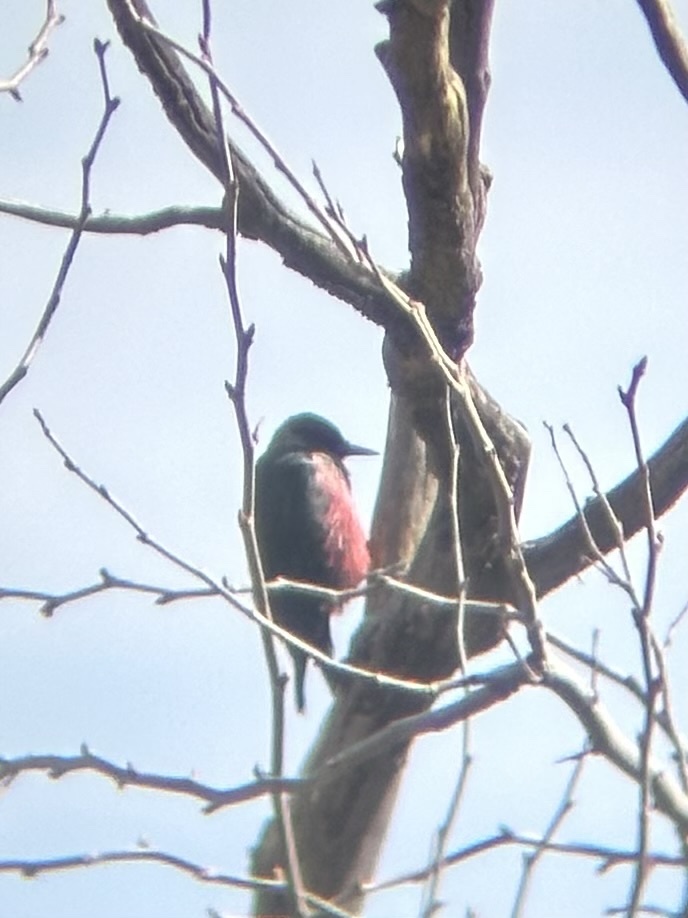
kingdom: Animalia
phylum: Chordata
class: Aves
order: Piciformes
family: Picidae
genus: Melanerpes
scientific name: Melanerpes lewis
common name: Lewis's woodpecker
